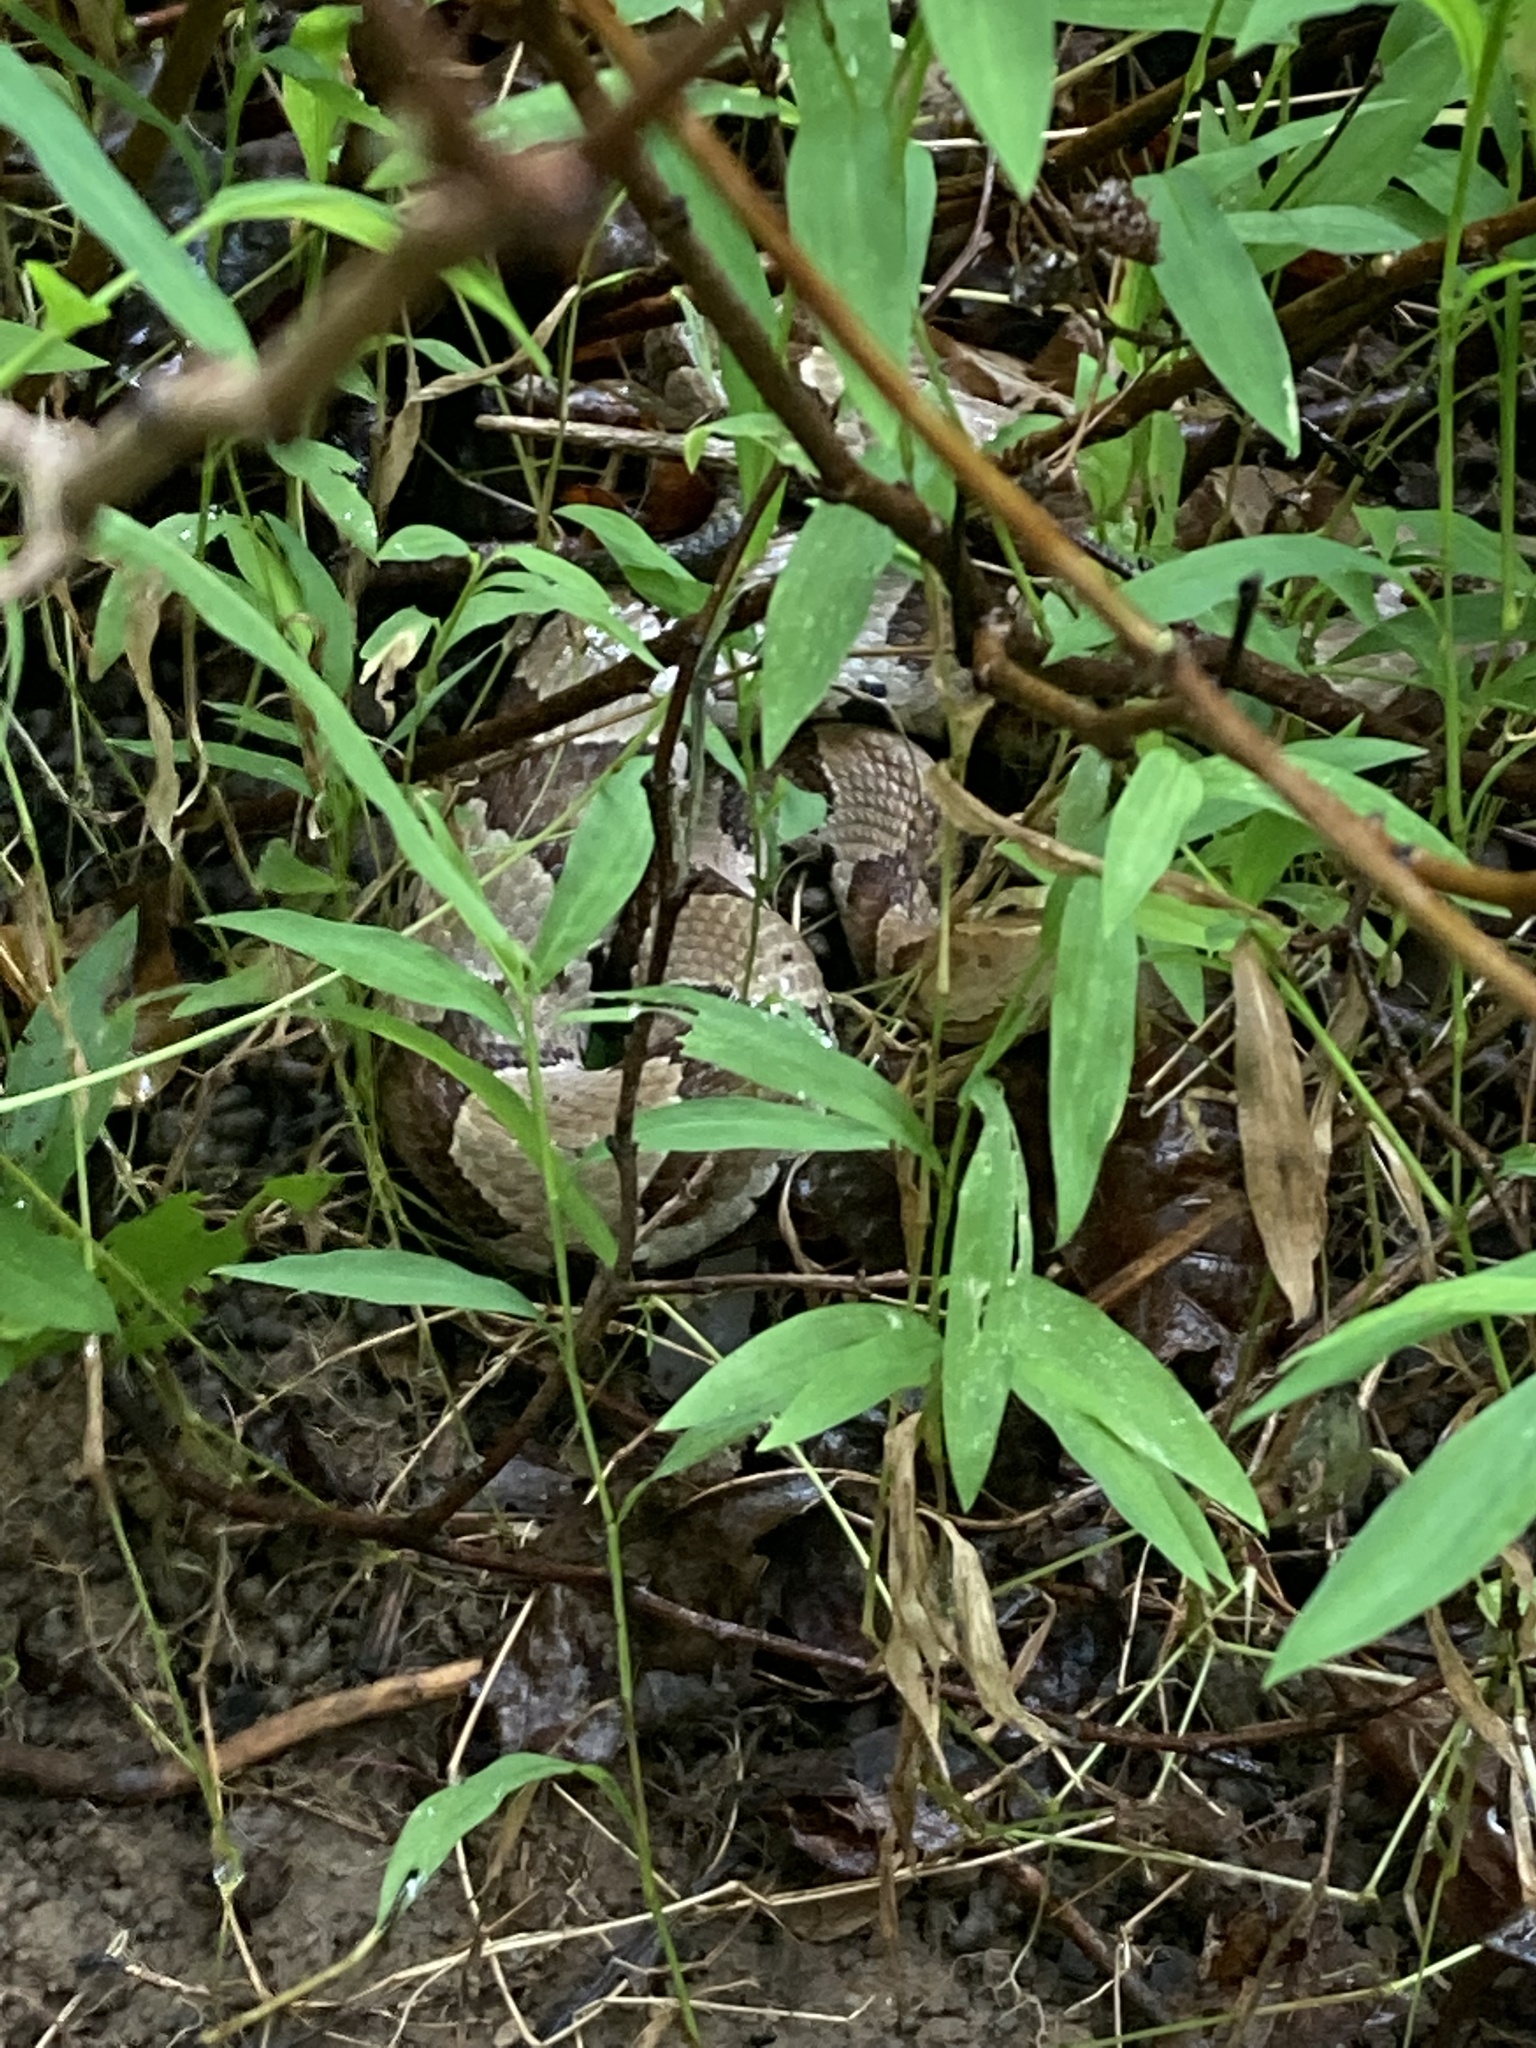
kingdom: Animalia
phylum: Chordata
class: Squamata
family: Viperidae
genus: Agkistrodon
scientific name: Agkistrodon contortrix
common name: Northern copperhead
